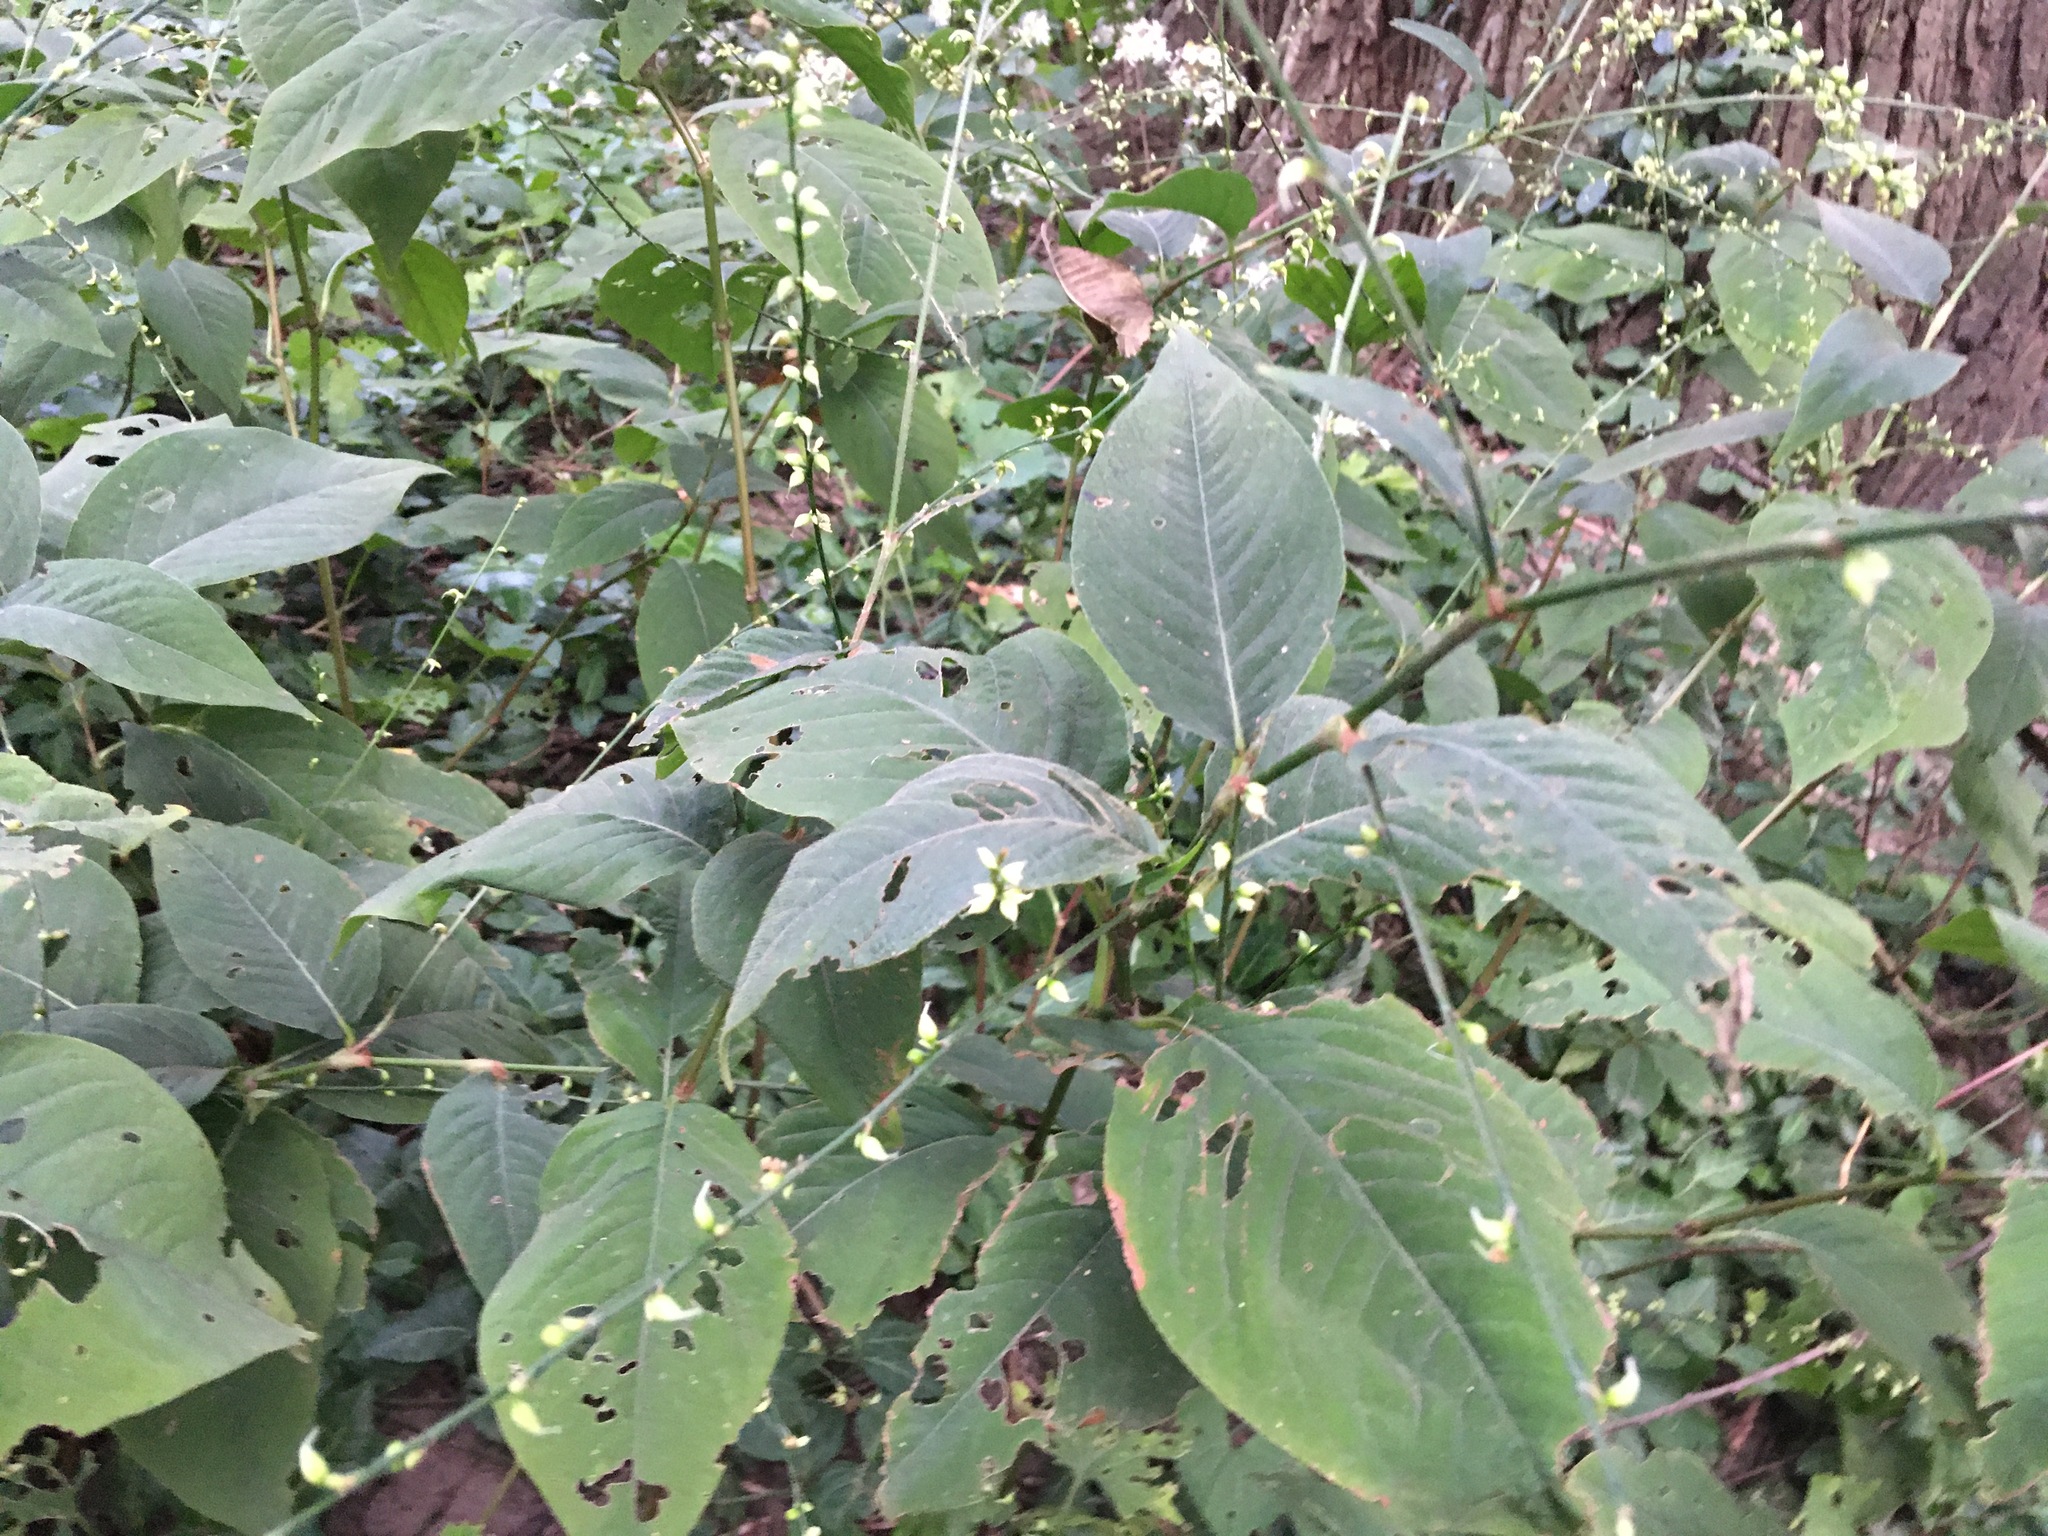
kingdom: Plantae
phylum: Tracheophyta
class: Magnoliopsida
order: Caryophyllales
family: Polygonaceae
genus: Persicaria
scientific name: Persicaria virginiana
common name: Jumpseed
